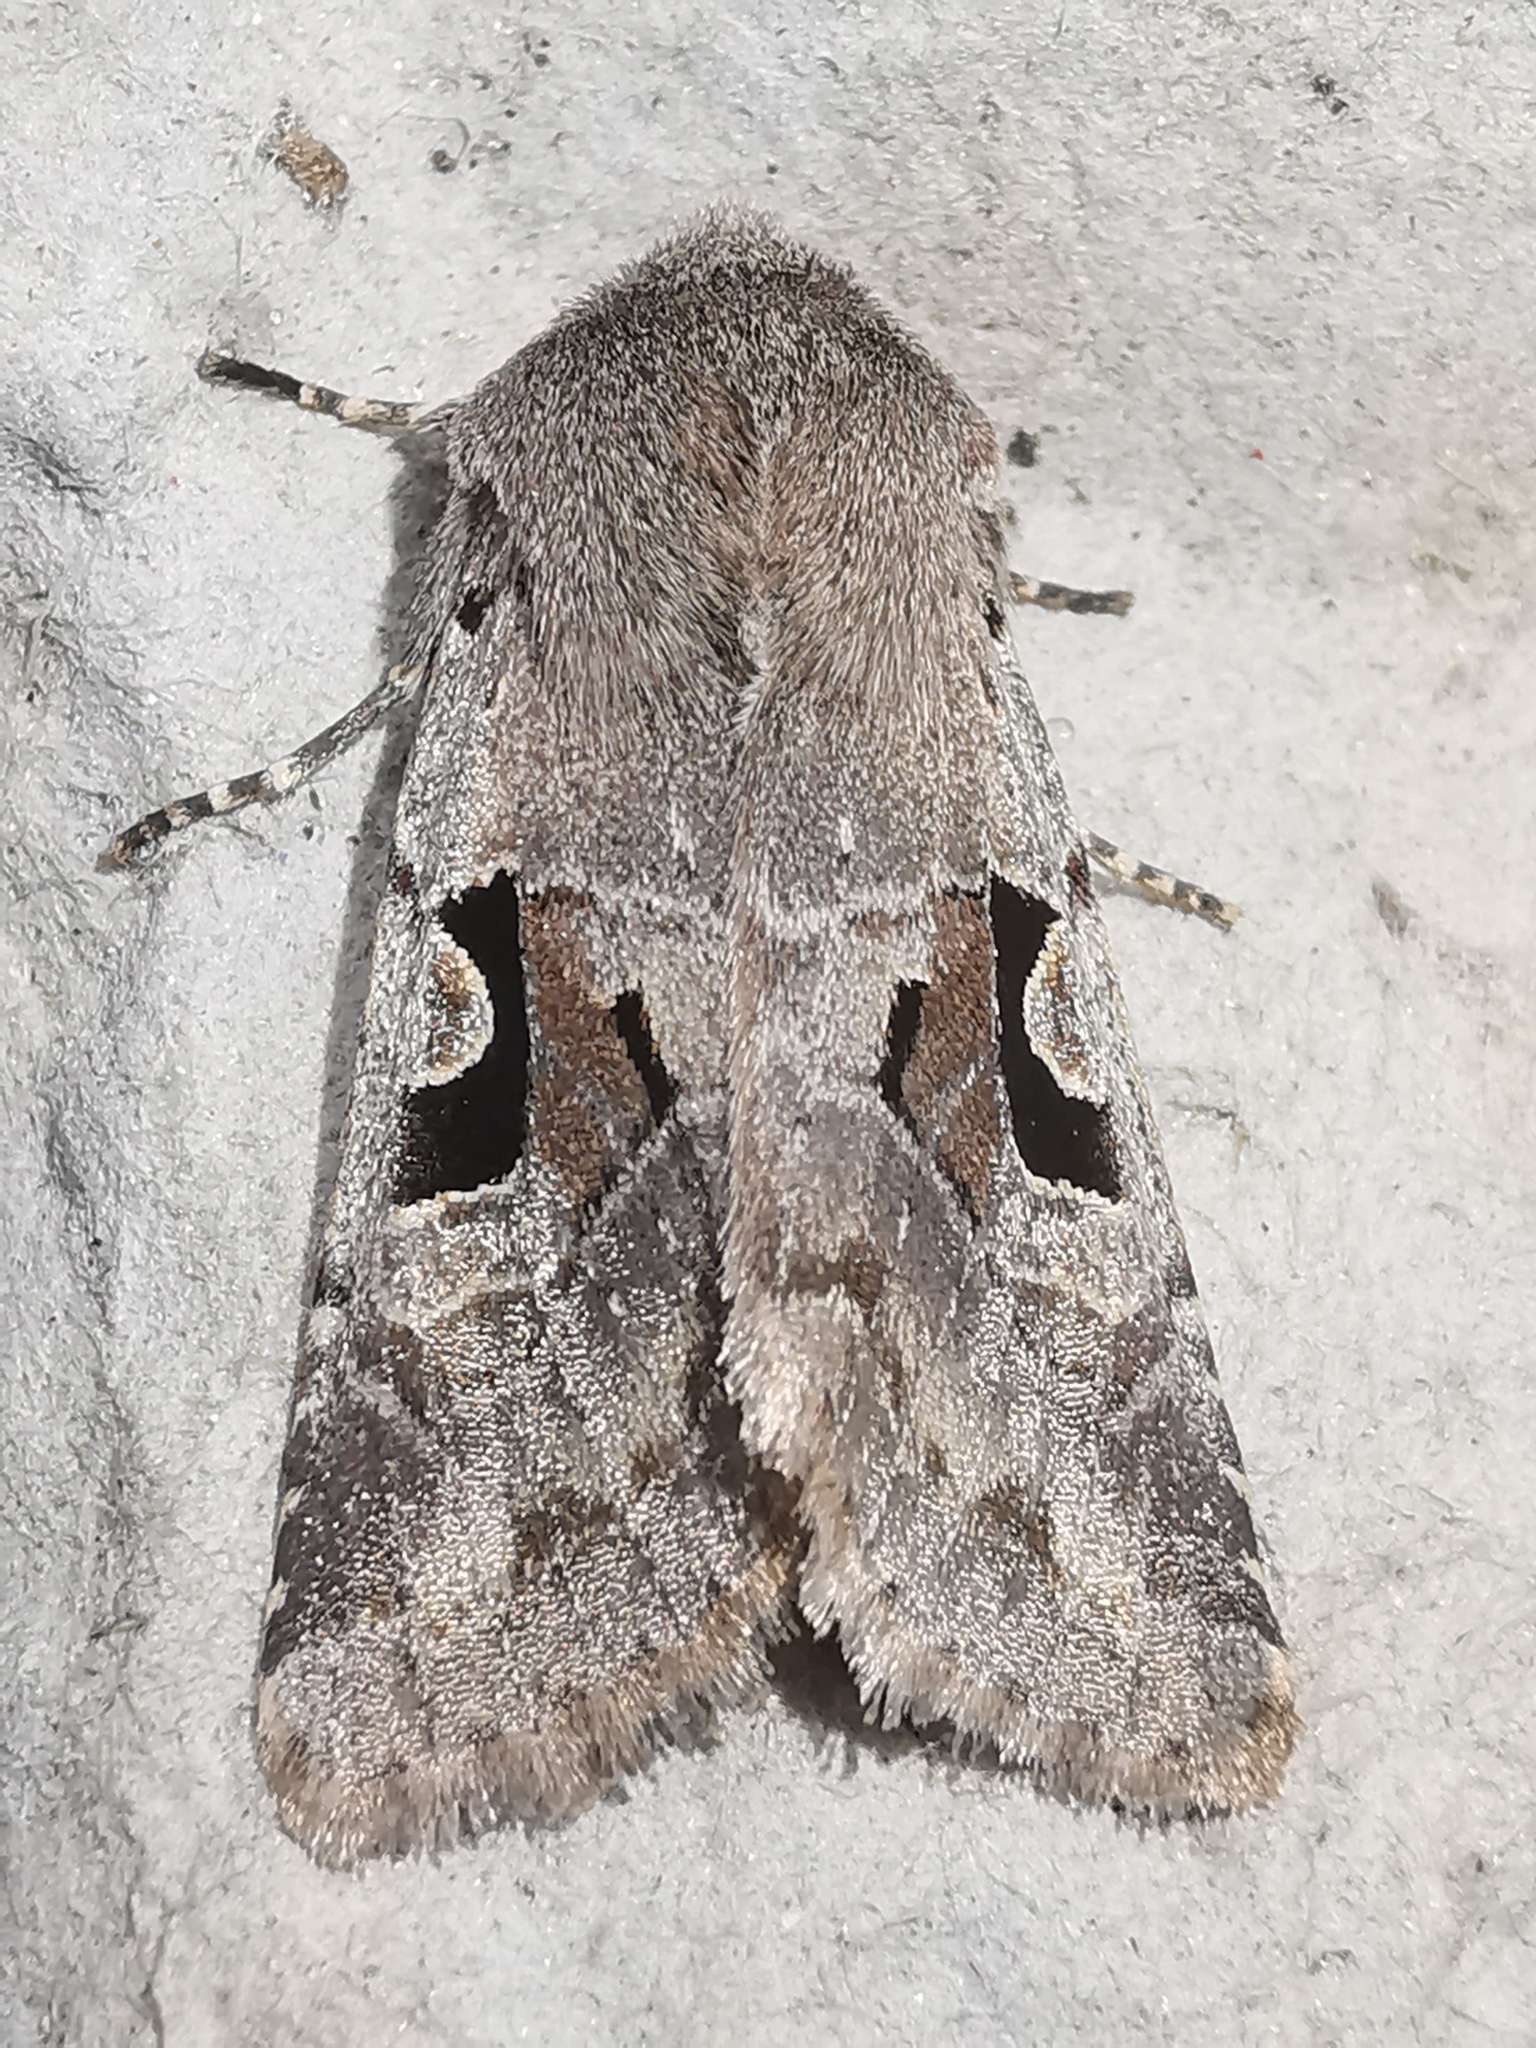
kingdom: Animalia
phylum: Arthropoda
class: Insecta
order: Lepidoptera
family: Noctuidae
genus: Orthosia
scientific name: Orthosia gothica
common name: Hebrew character
